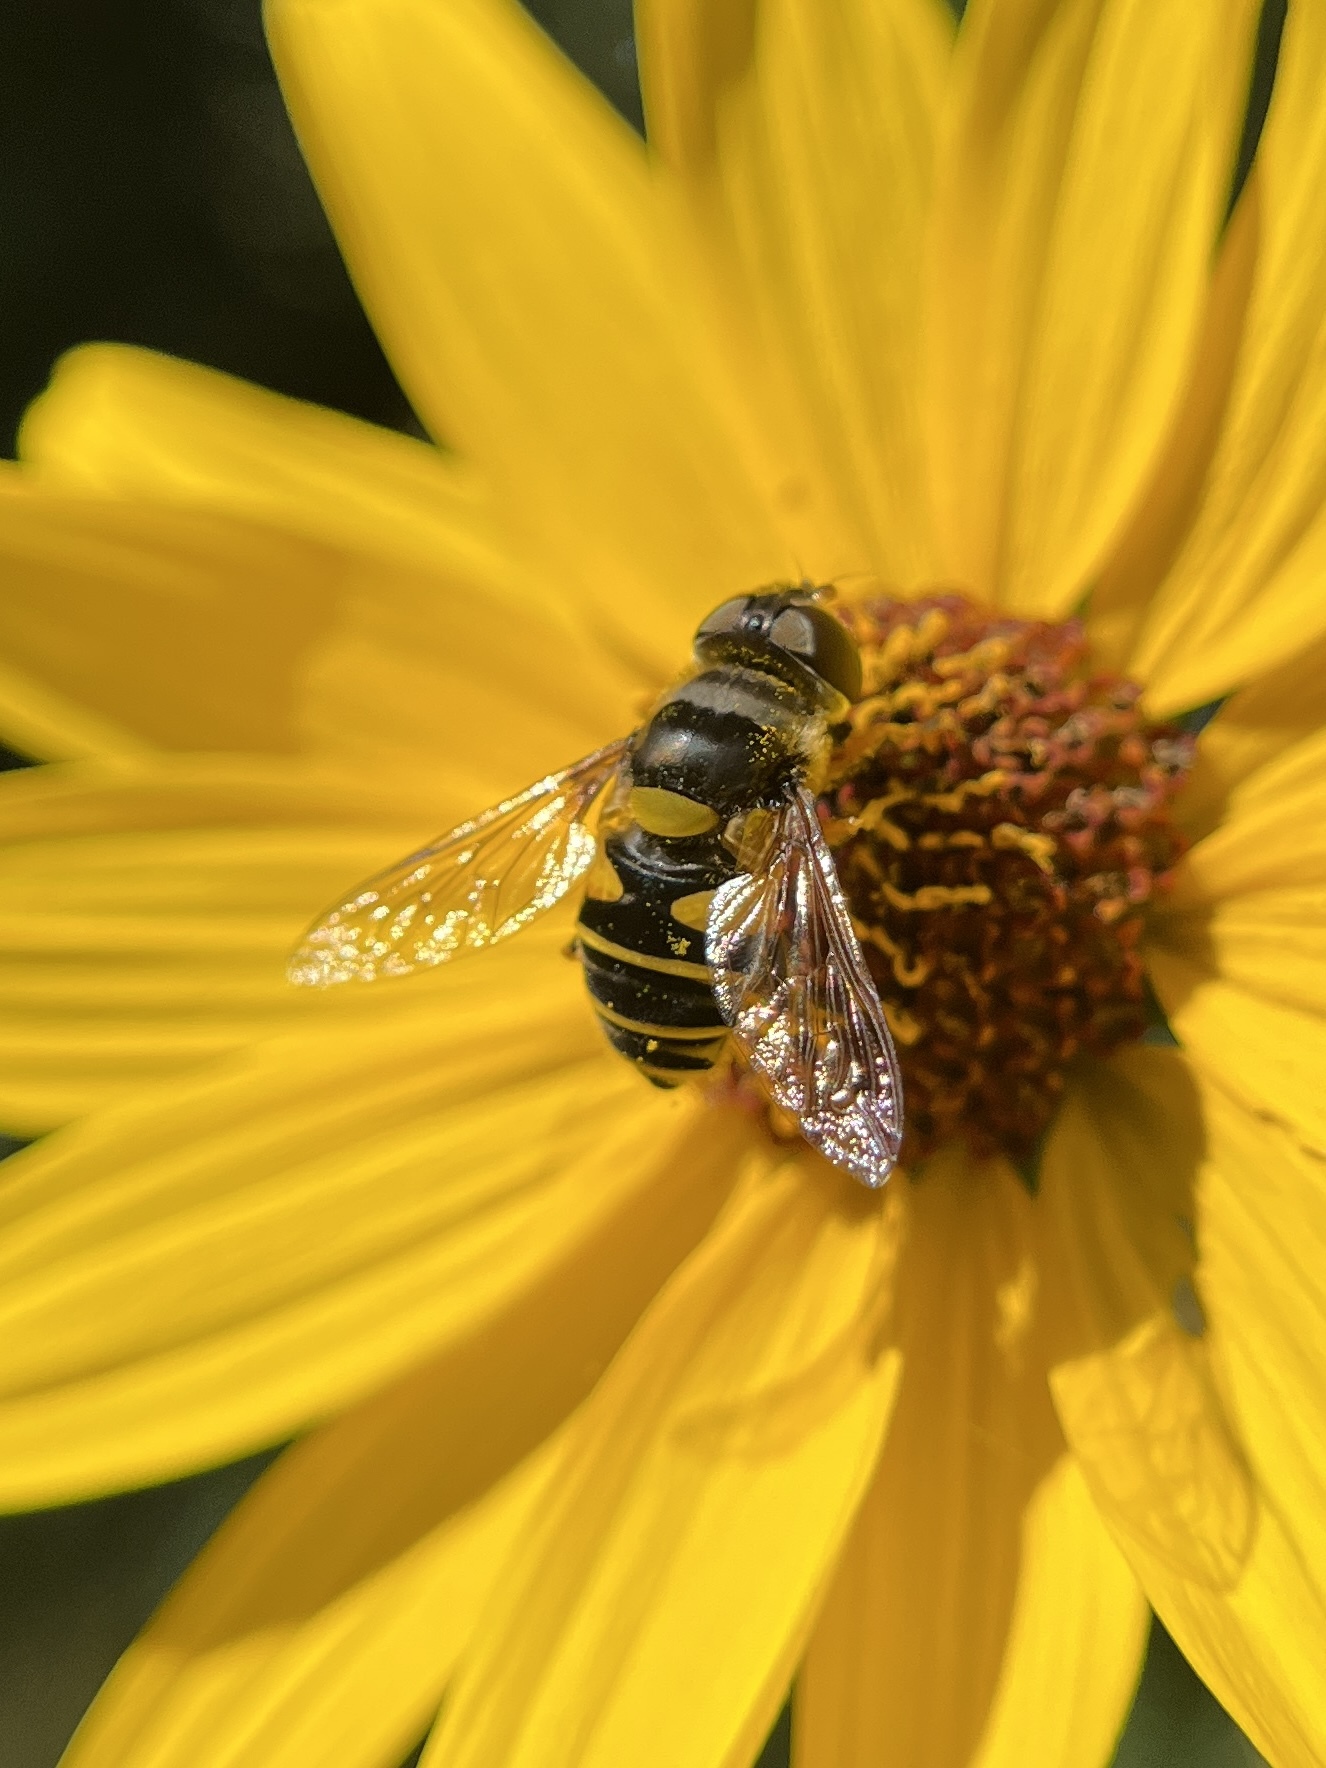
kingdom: Animalia
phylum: Arthropoda
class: Insecta
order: Diptera
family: Syrphidae
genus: Eristalis
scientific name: Eristalis transversa
